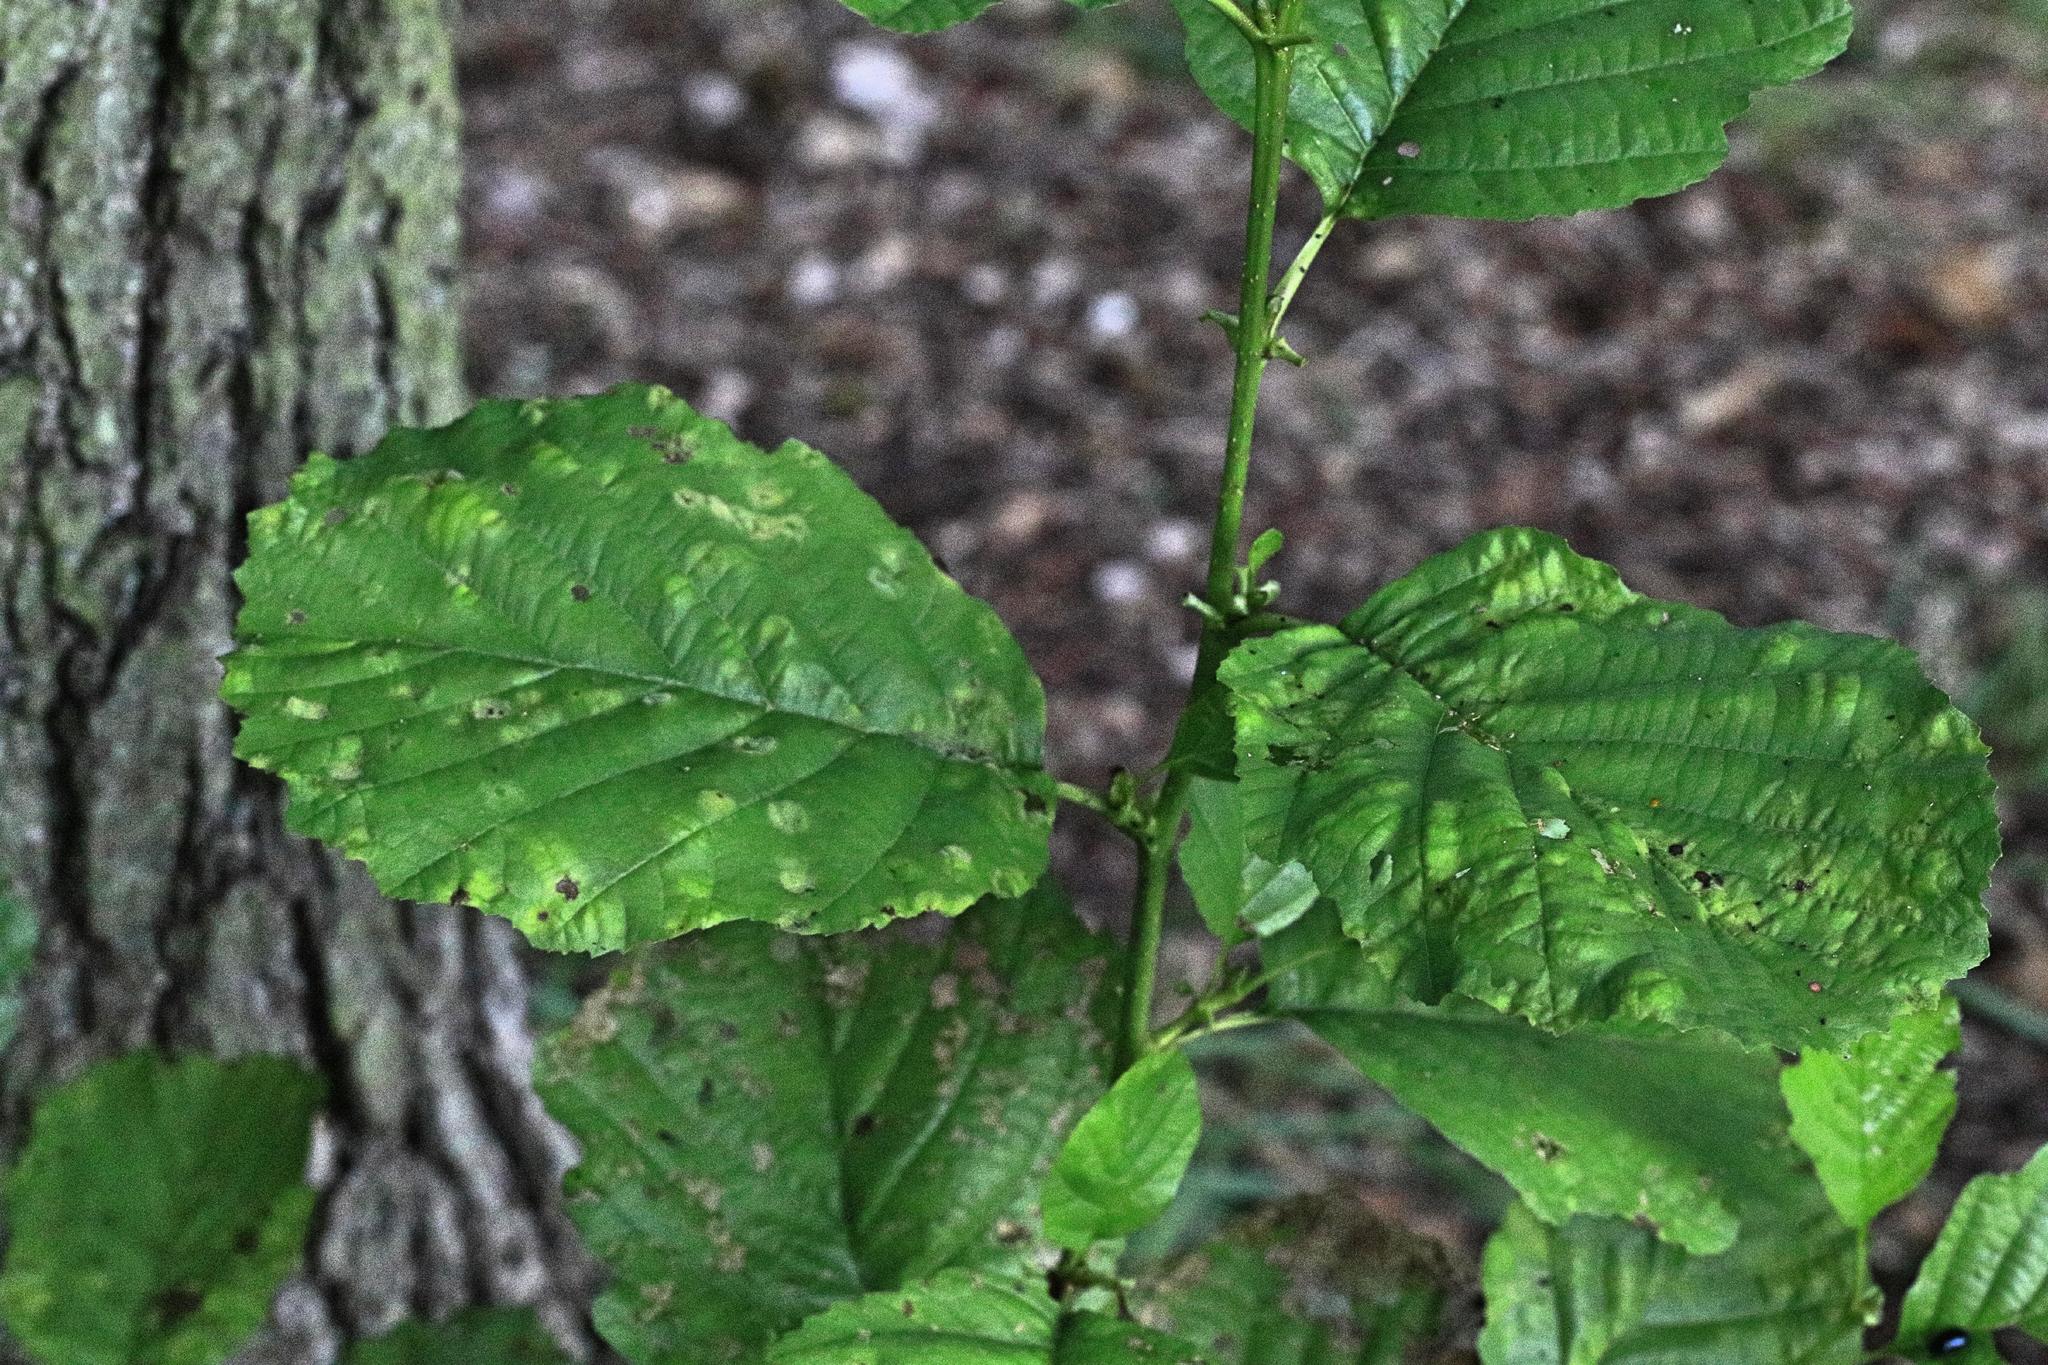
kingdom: Plantae
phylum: Tracheophyta
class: Magnoliopsida
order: Fagales
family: Betulaceae
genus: Alnus
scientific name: Alnus glutinosa
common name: Black alder
